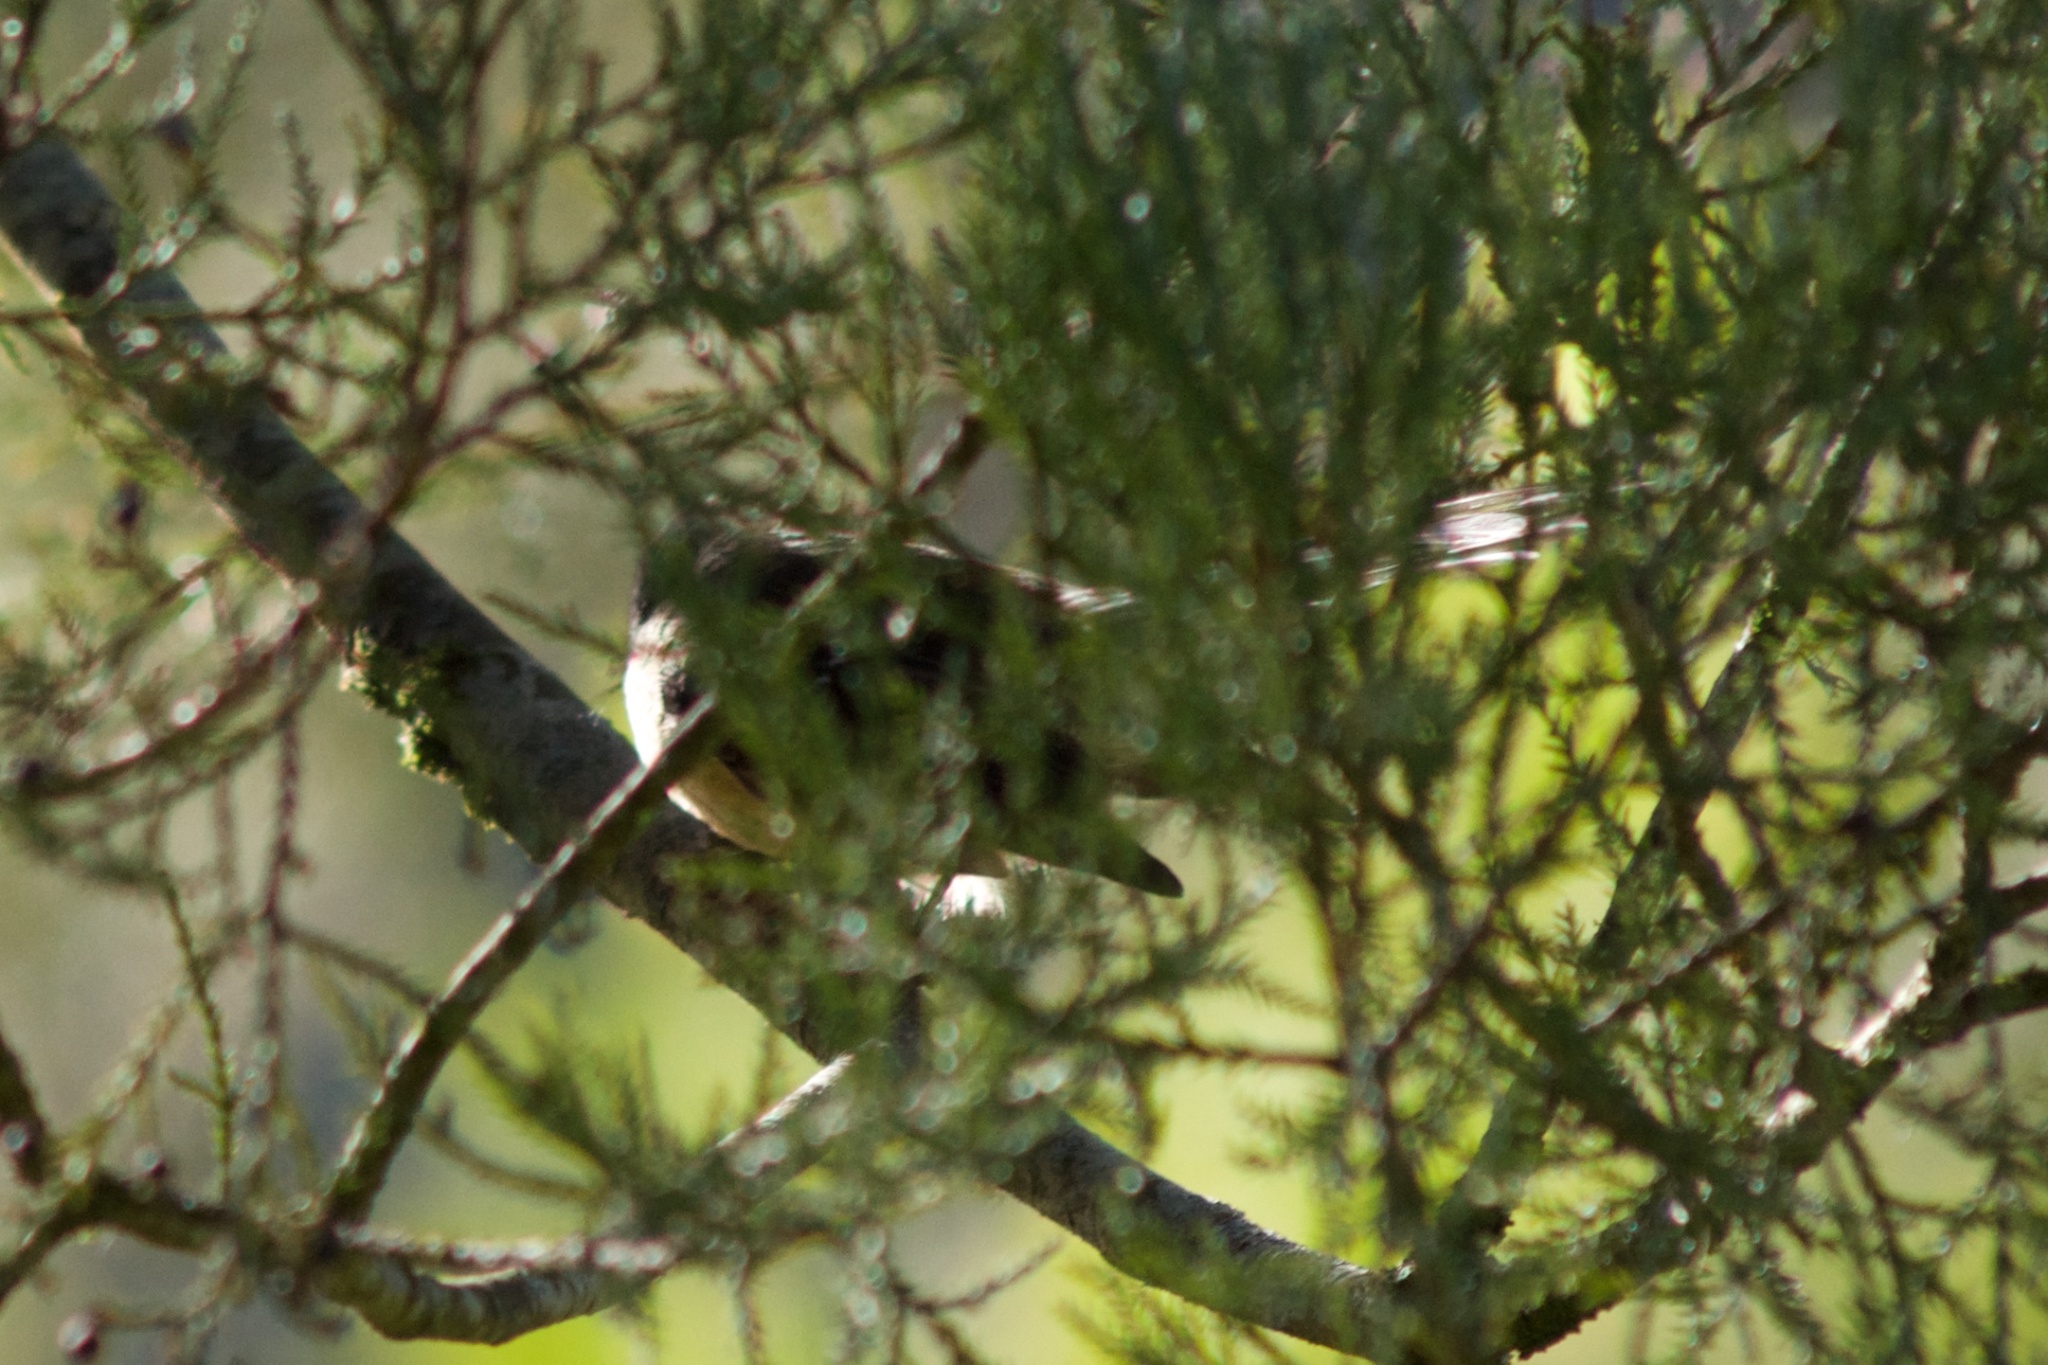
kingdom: Animalia
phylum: Chordata
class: Aves
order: Passeriformes
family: Rhipiduridae
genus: Rhipidura
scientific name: Rhipidura fuliginosa
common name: New zealand fantail
